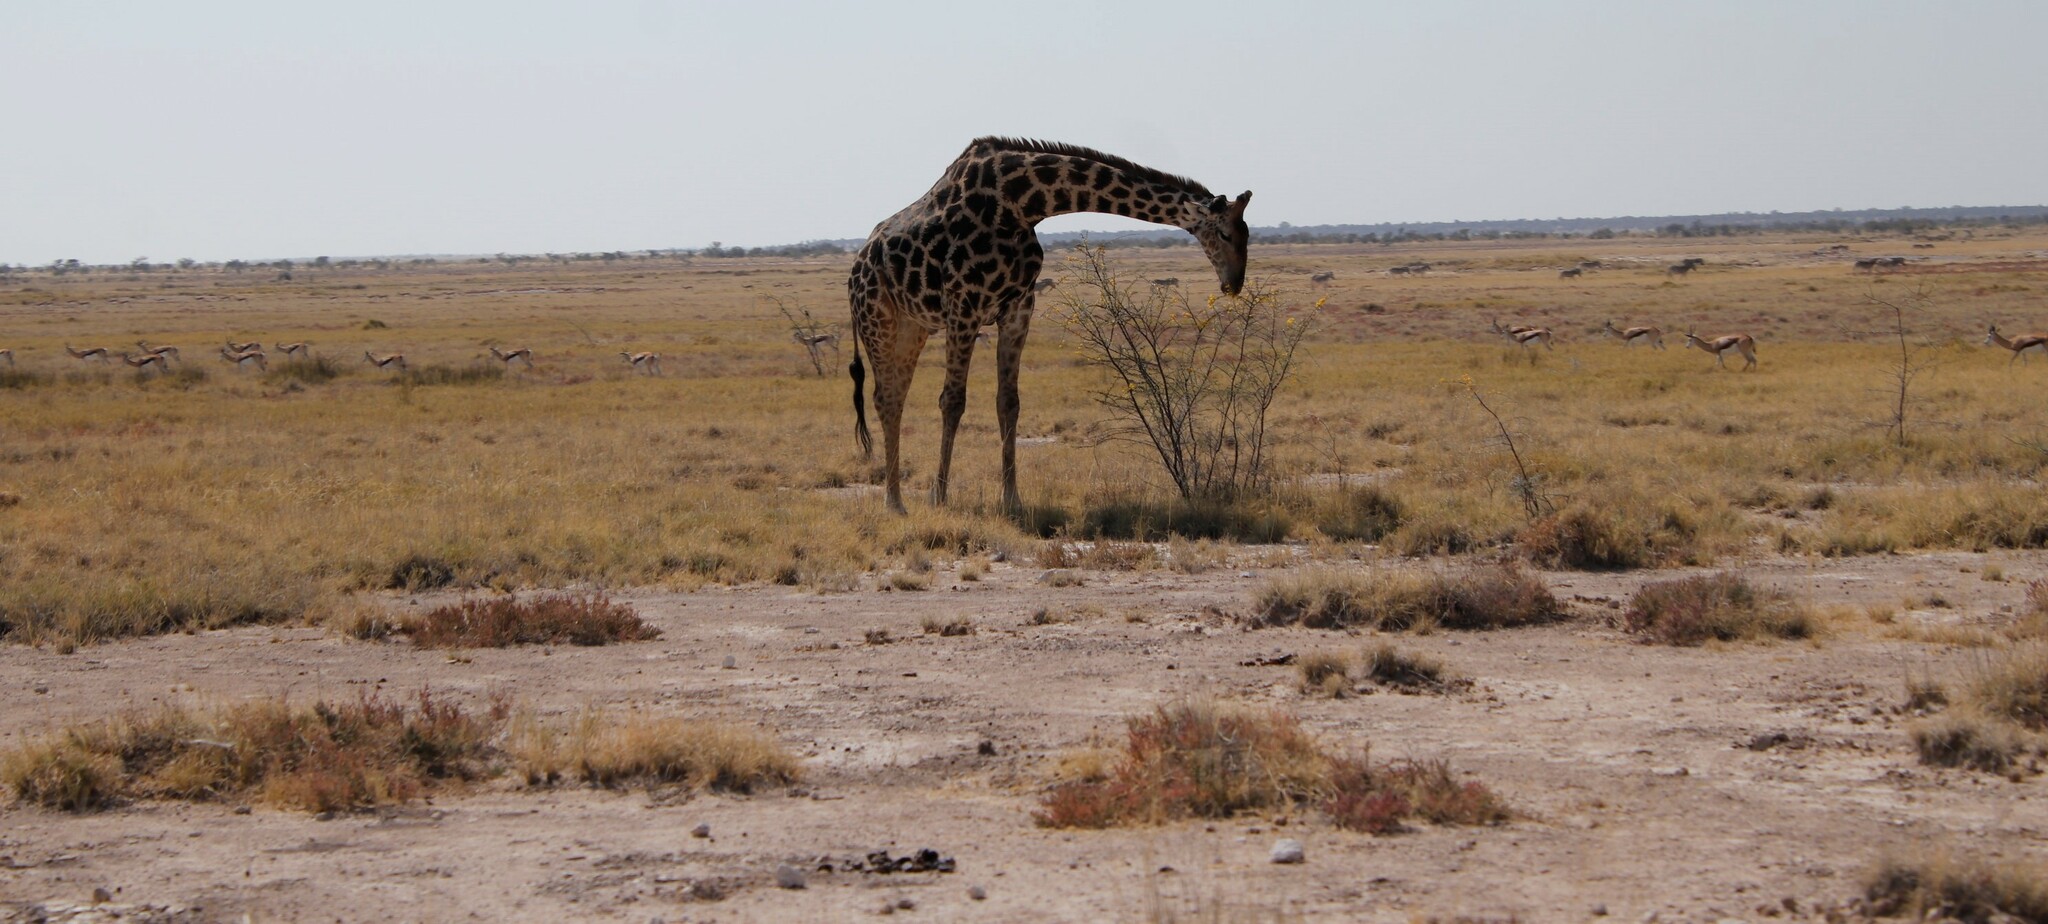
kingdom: Animalia
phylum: Chordata
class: Mammalia
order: Artiodactyla
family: Giraffidae
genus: Giraffa
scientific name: Giraffa giraffa
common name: Southern giraffe
